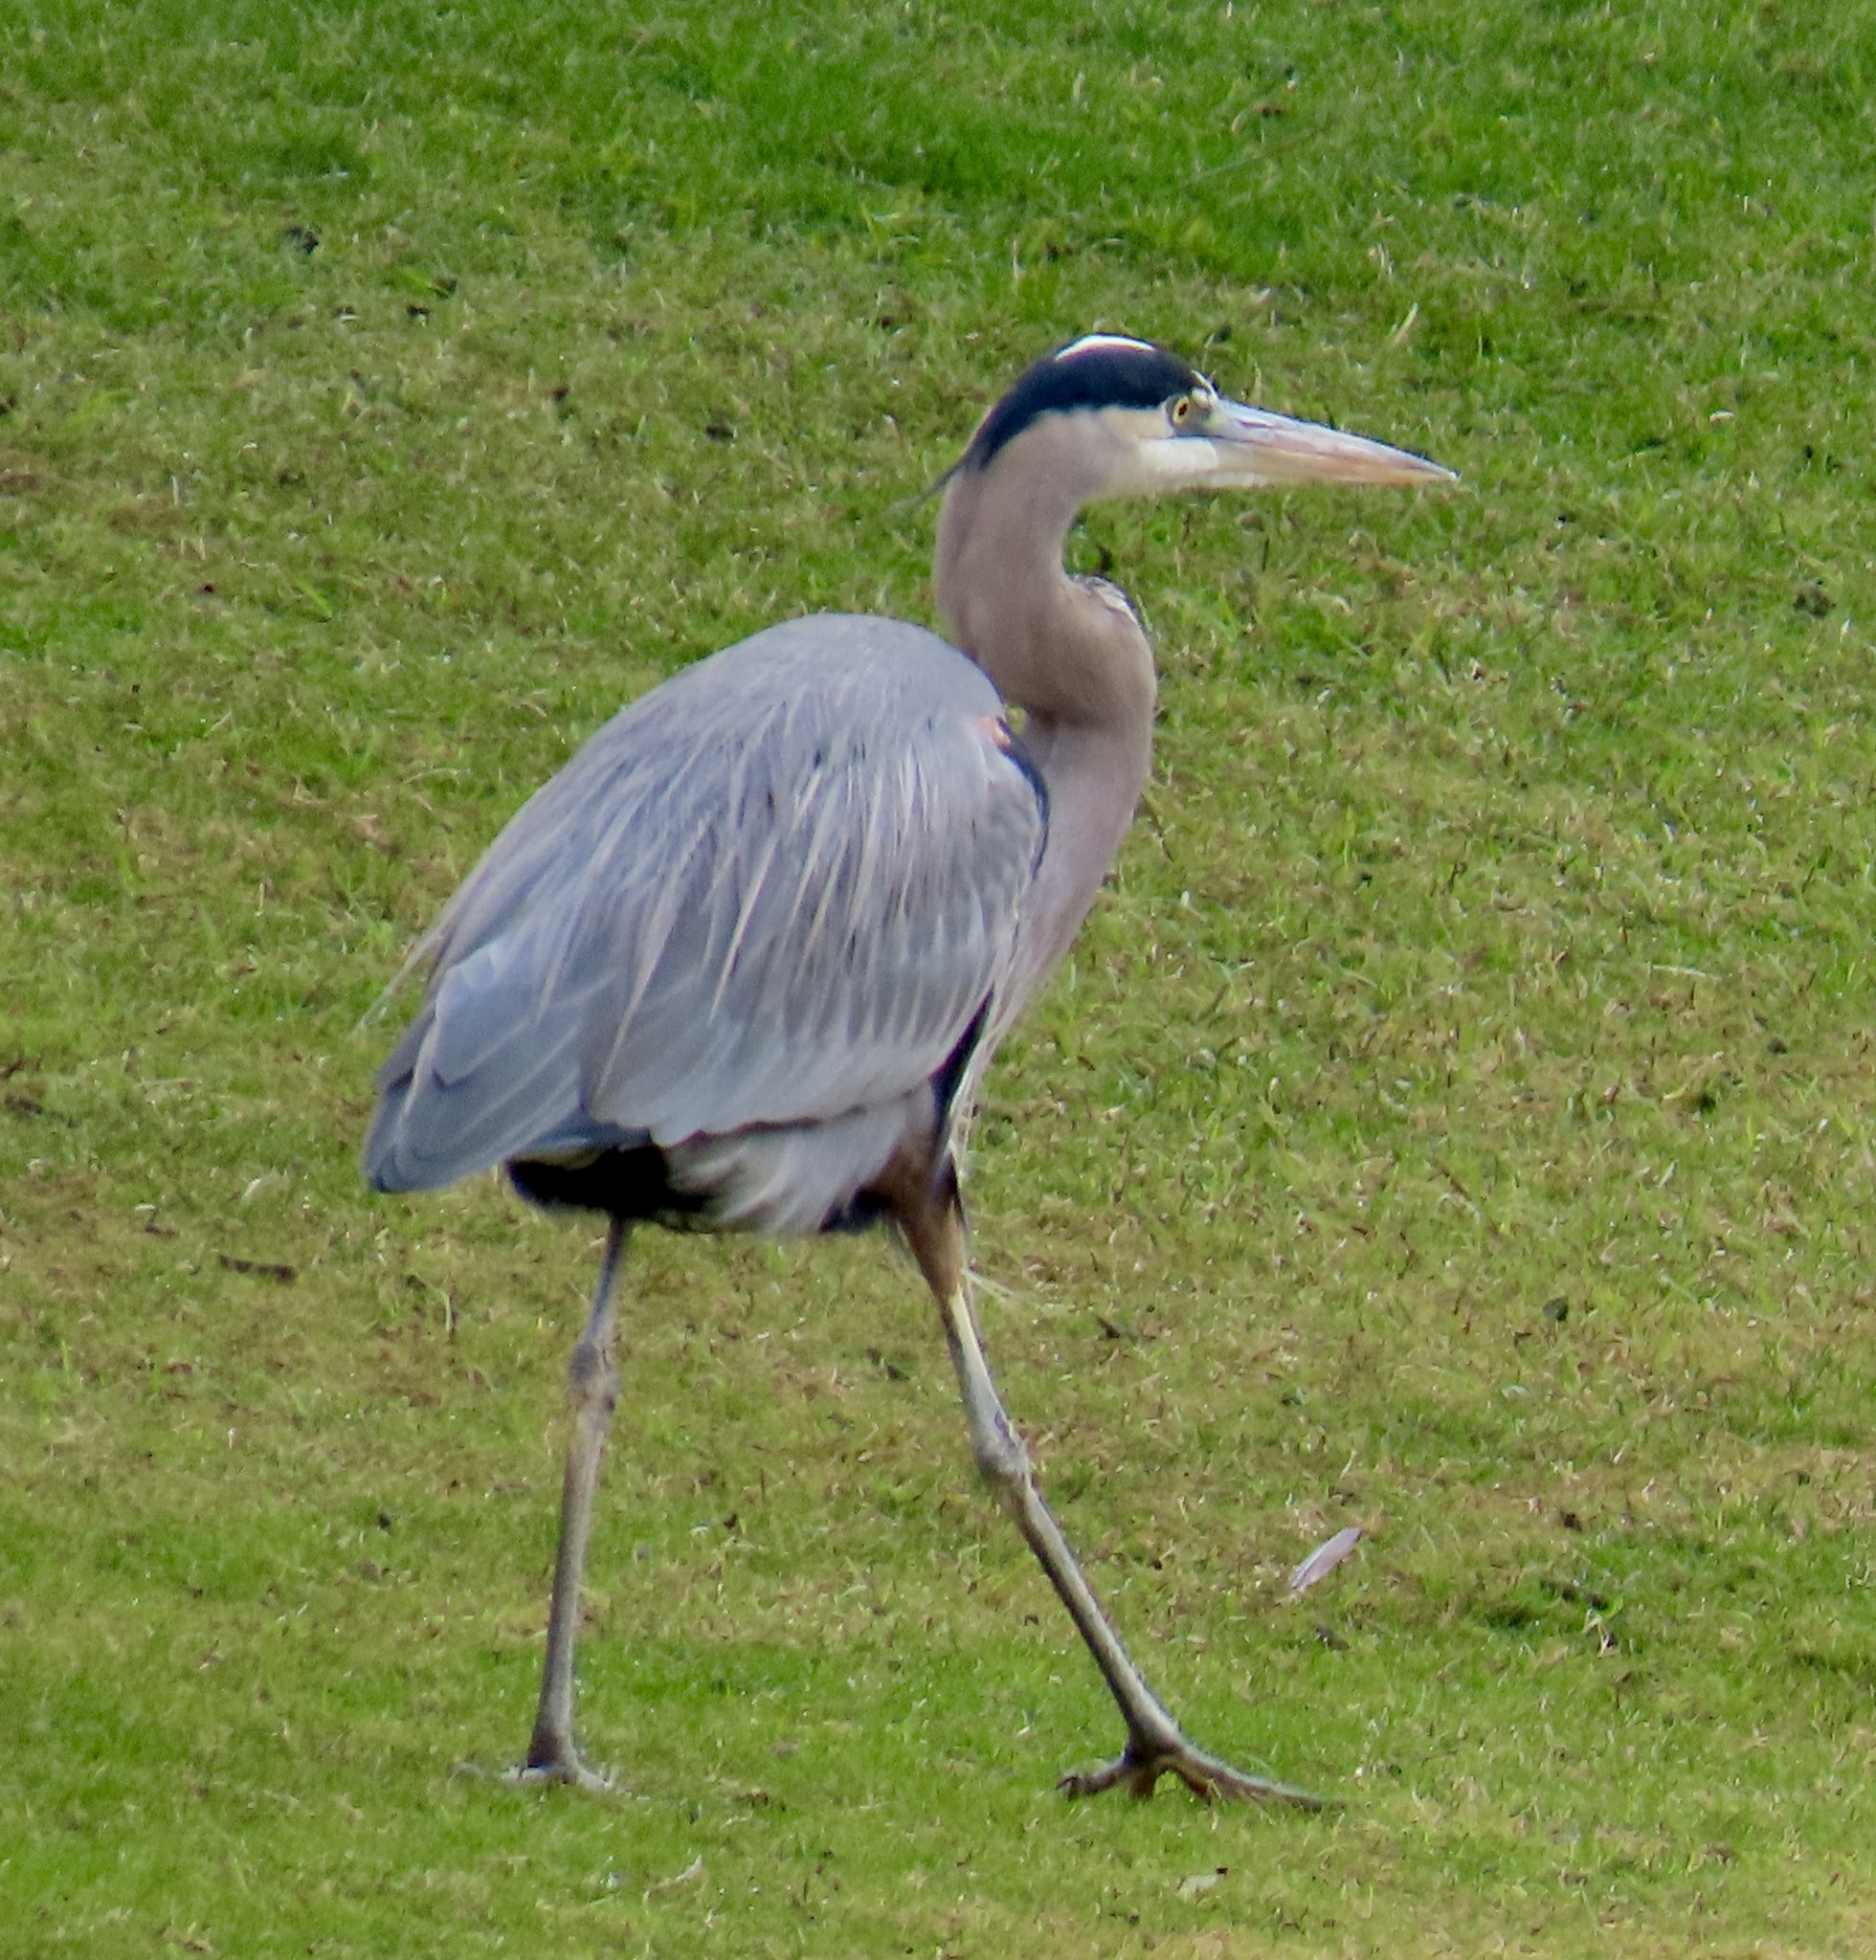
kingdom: Animalia
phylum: Chordata
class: Aves
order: Pelecaniformes
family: Ardeidae
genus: Ardea
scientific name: Ardea herodias
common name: Great blue heron
